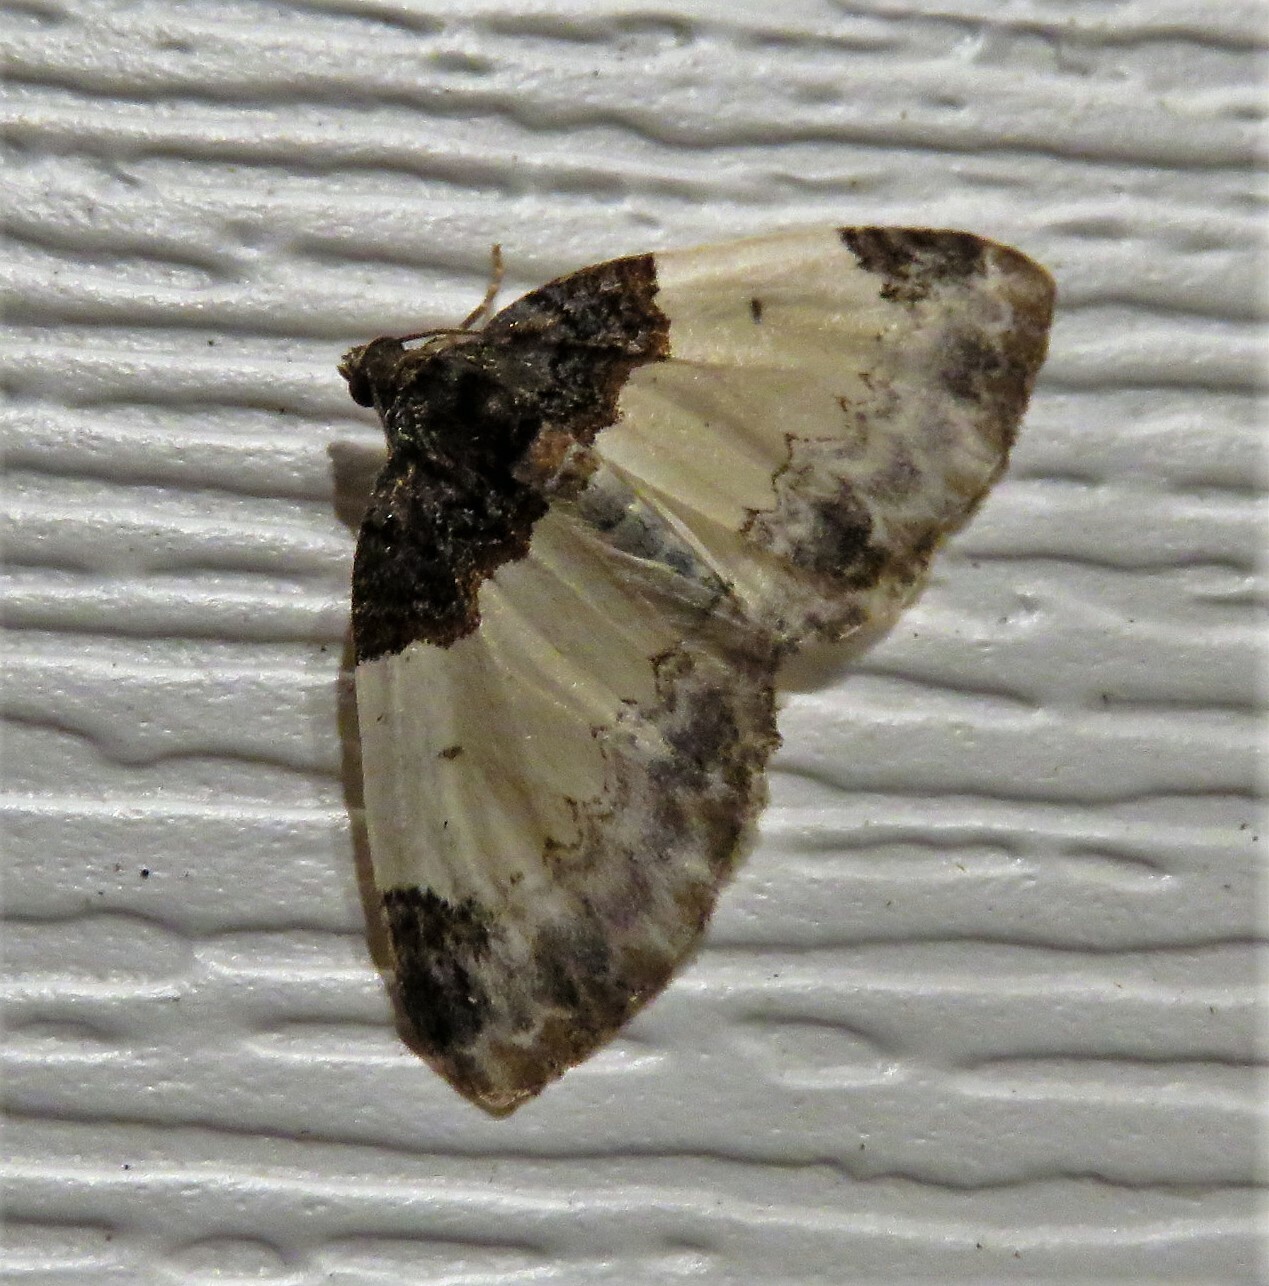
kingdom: Animalia
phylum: Arthropoda
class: Insecta
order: Lepidoptera
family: Geometridae
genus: Mesoleuca
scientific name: Mesoleuca ruficillata
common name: White-ribboned carpet moth
